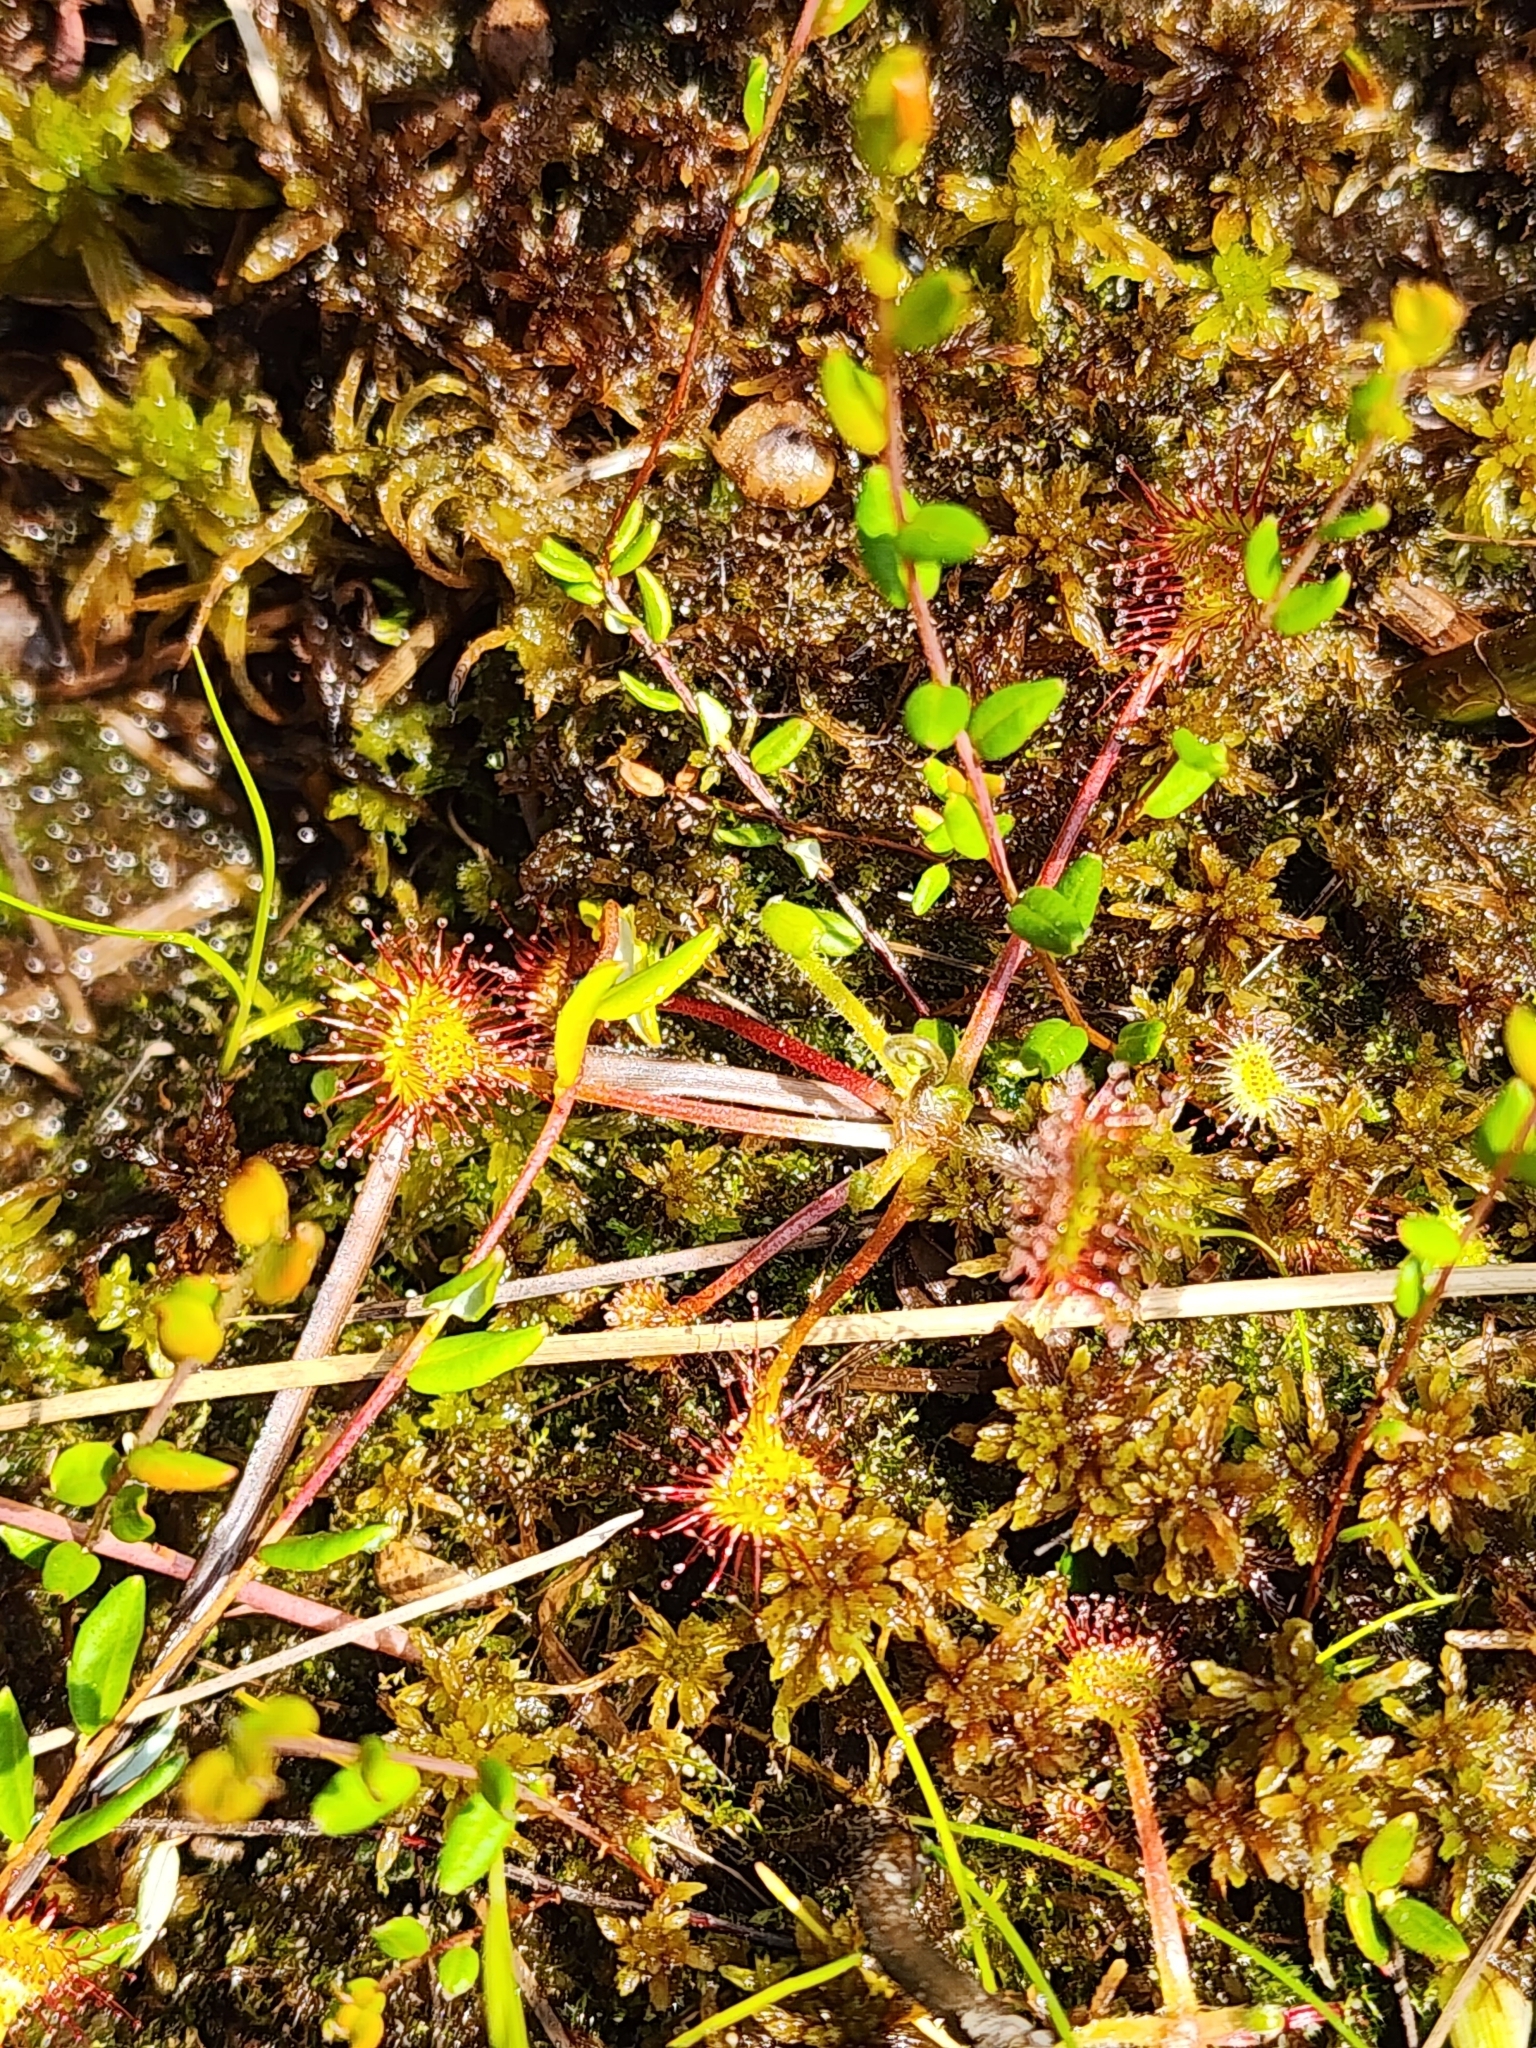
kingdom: Plantae
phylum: Tracheophyta
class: Magnoliopsida
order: Caryophyllales
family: Droseraceae
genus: Drosera
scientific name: Drosera rotundifolia
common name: Round-leaved sundew
